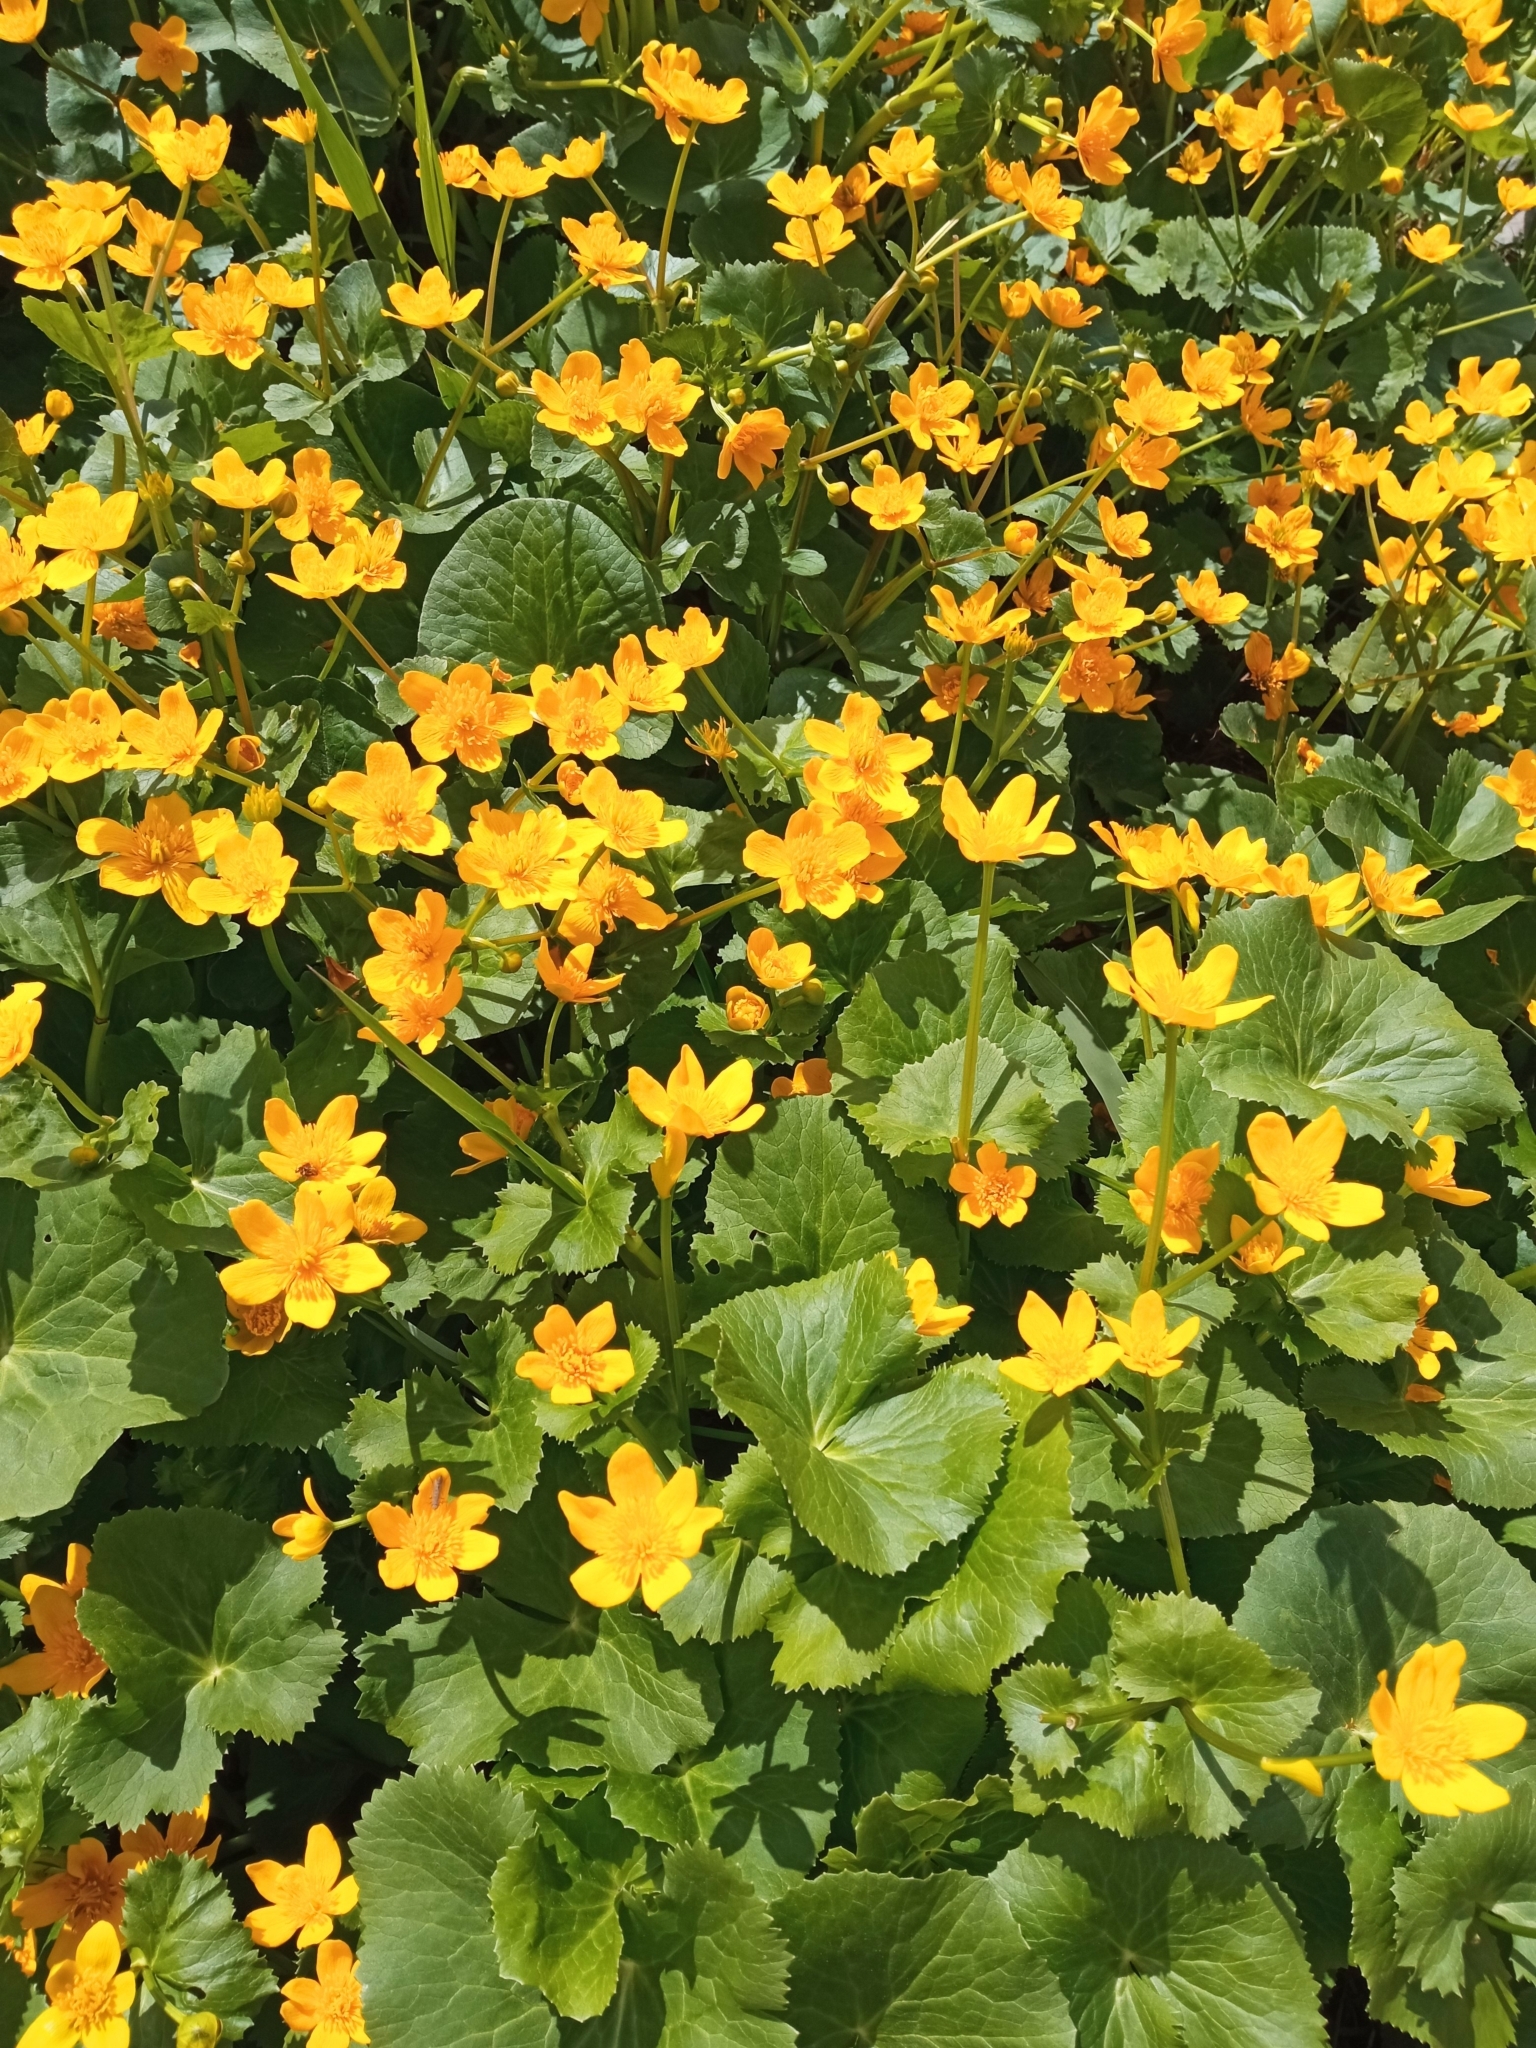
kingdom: Plantae
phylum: Tracheophyta
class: Magnoliopsida
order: Ranunculales
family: Ranunculaceae
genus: Ficaria
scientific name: Ficaria verna
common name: Lesser celandine
